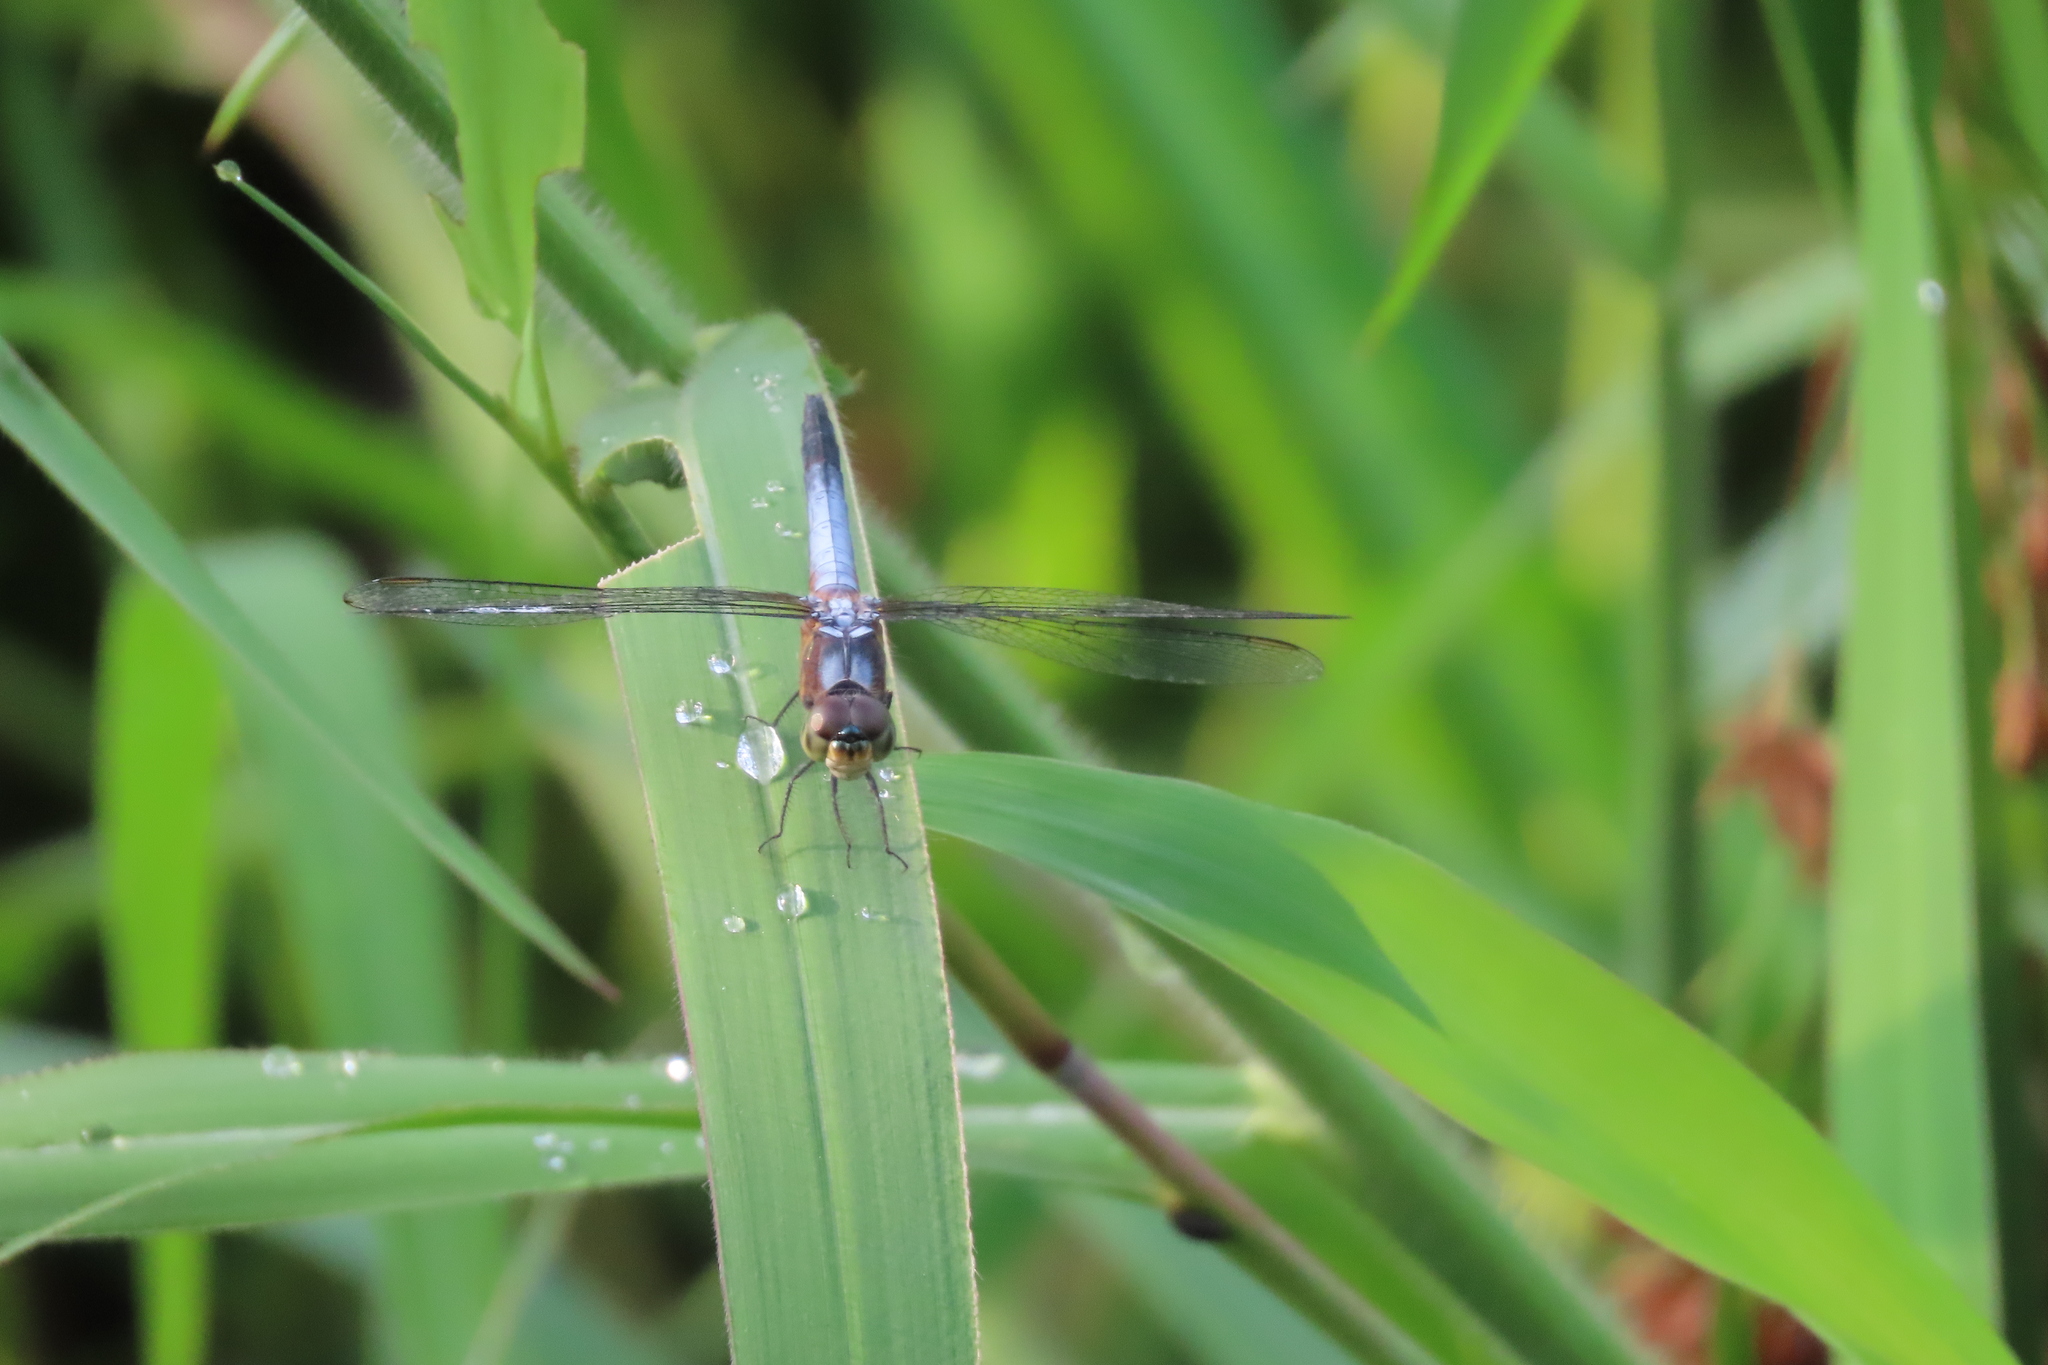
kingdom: Animalia
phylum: Arthropoda
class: Insecta
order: Odonata
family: Libellulidae
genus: Brachydiplax
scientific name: Brachydiplax chalybea
